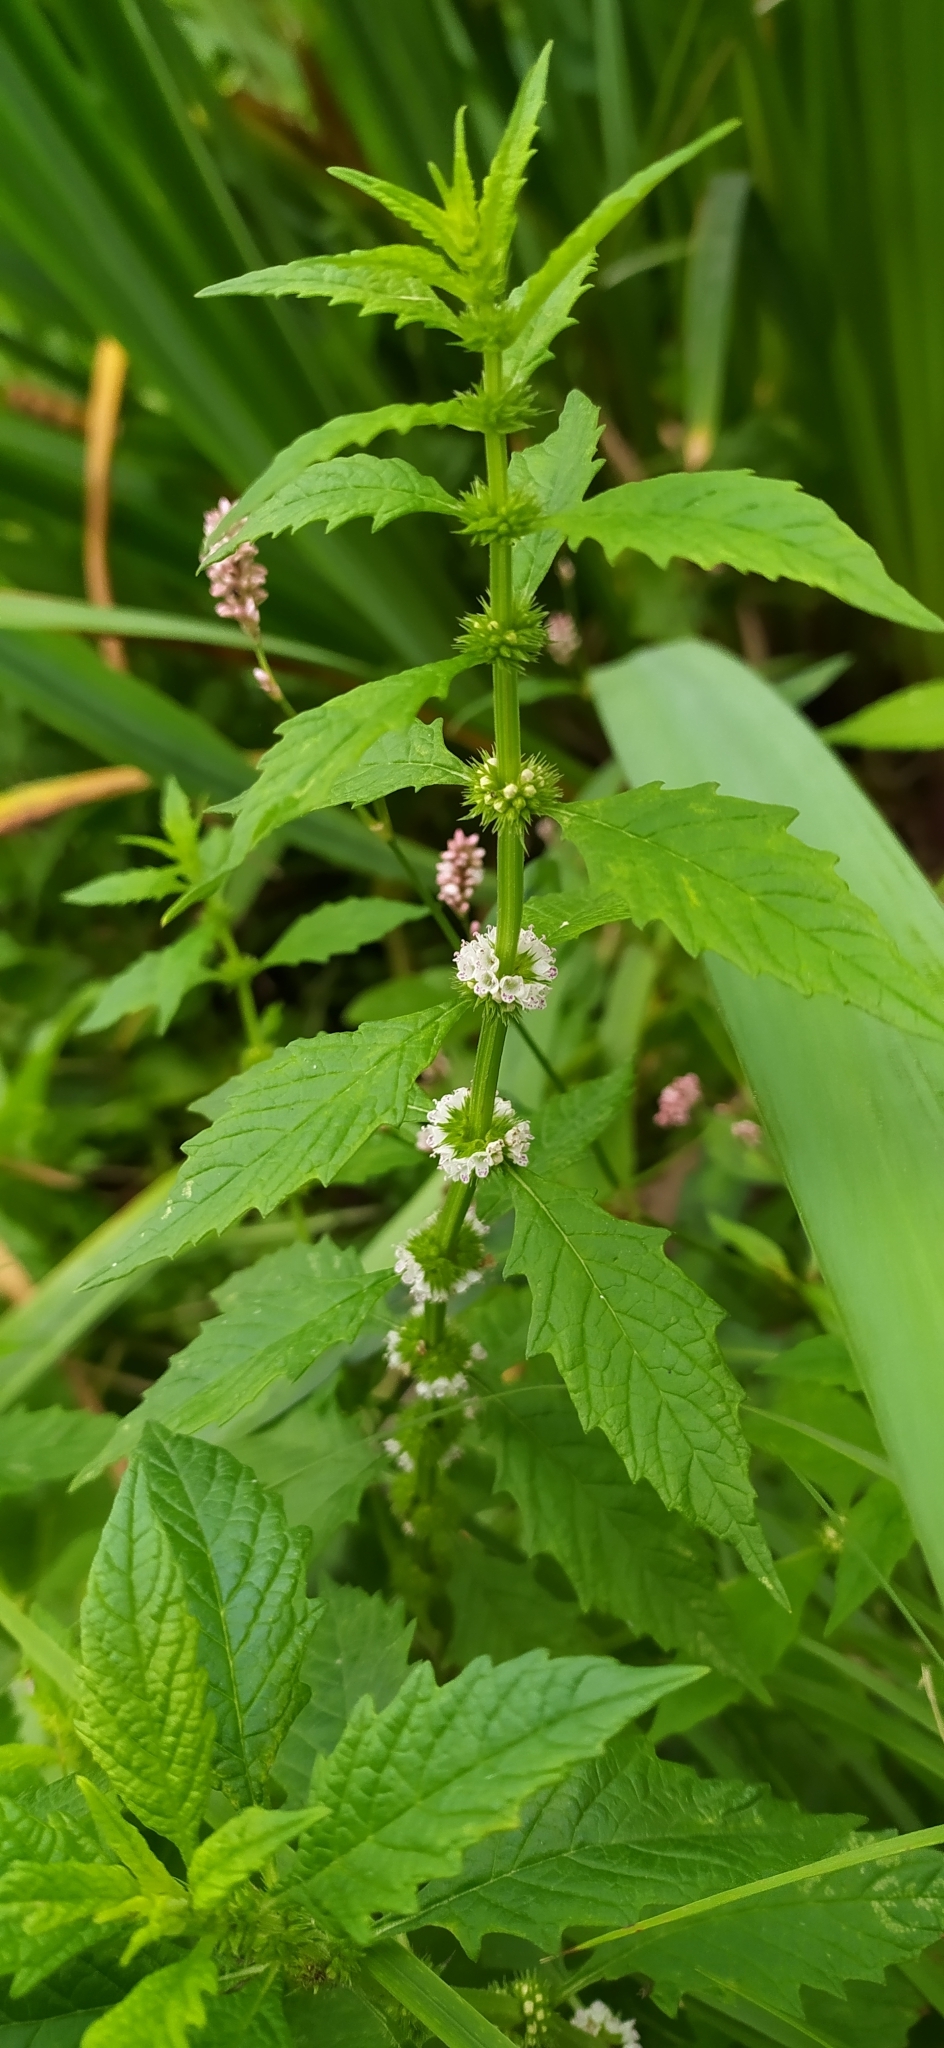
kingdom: Plantae
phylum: Tracheophyta
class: Magnoliopsida
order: Lamiales
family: Lamiaceae
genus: Lycopus
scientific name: Lycopus europaeus
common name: European bugleweed
